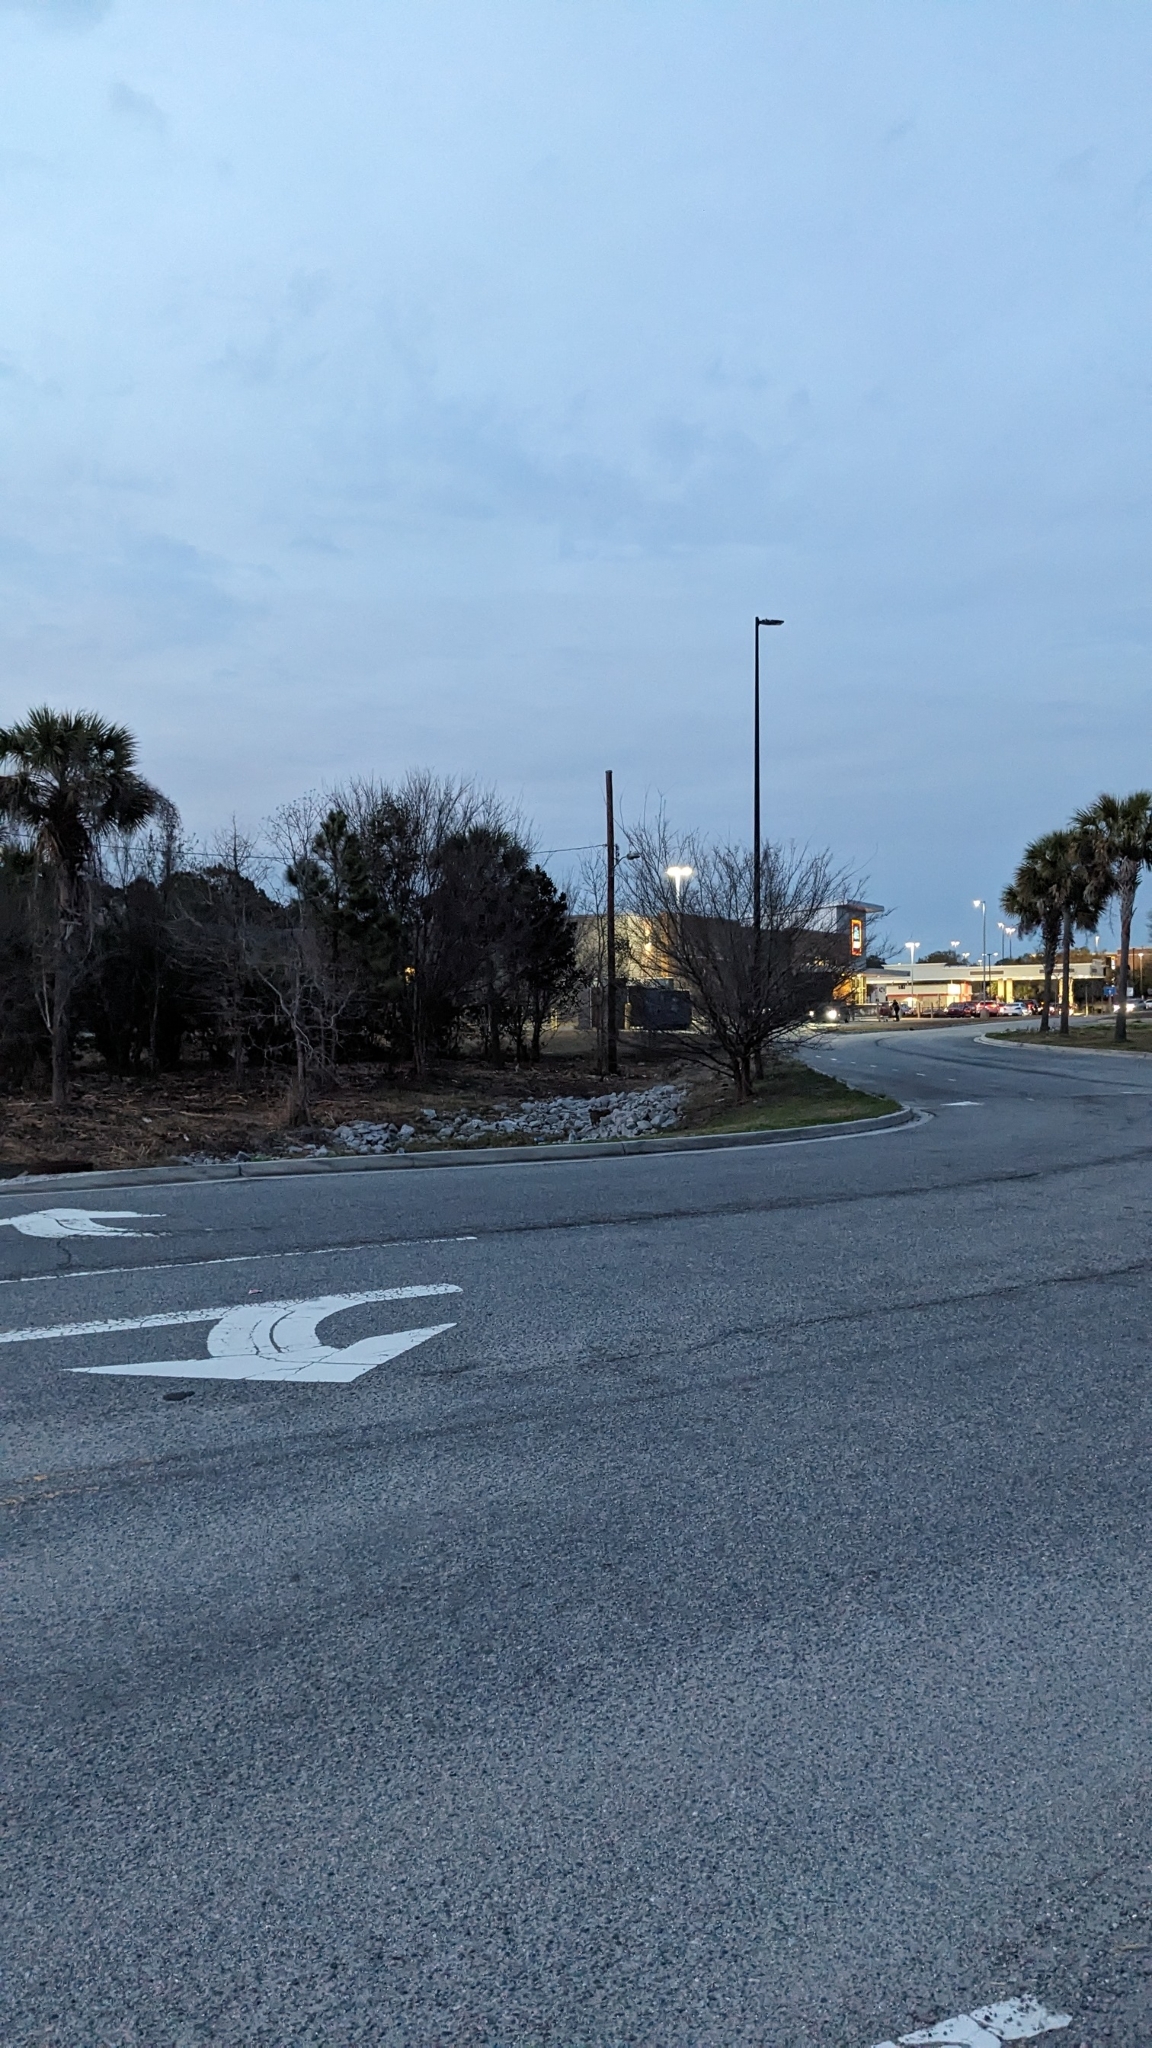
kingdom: Animalia
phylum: Chordata
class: Mammalia
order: Carnivora
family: Felidae
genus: Felis
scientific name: Felis catus
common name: Domestic cat
